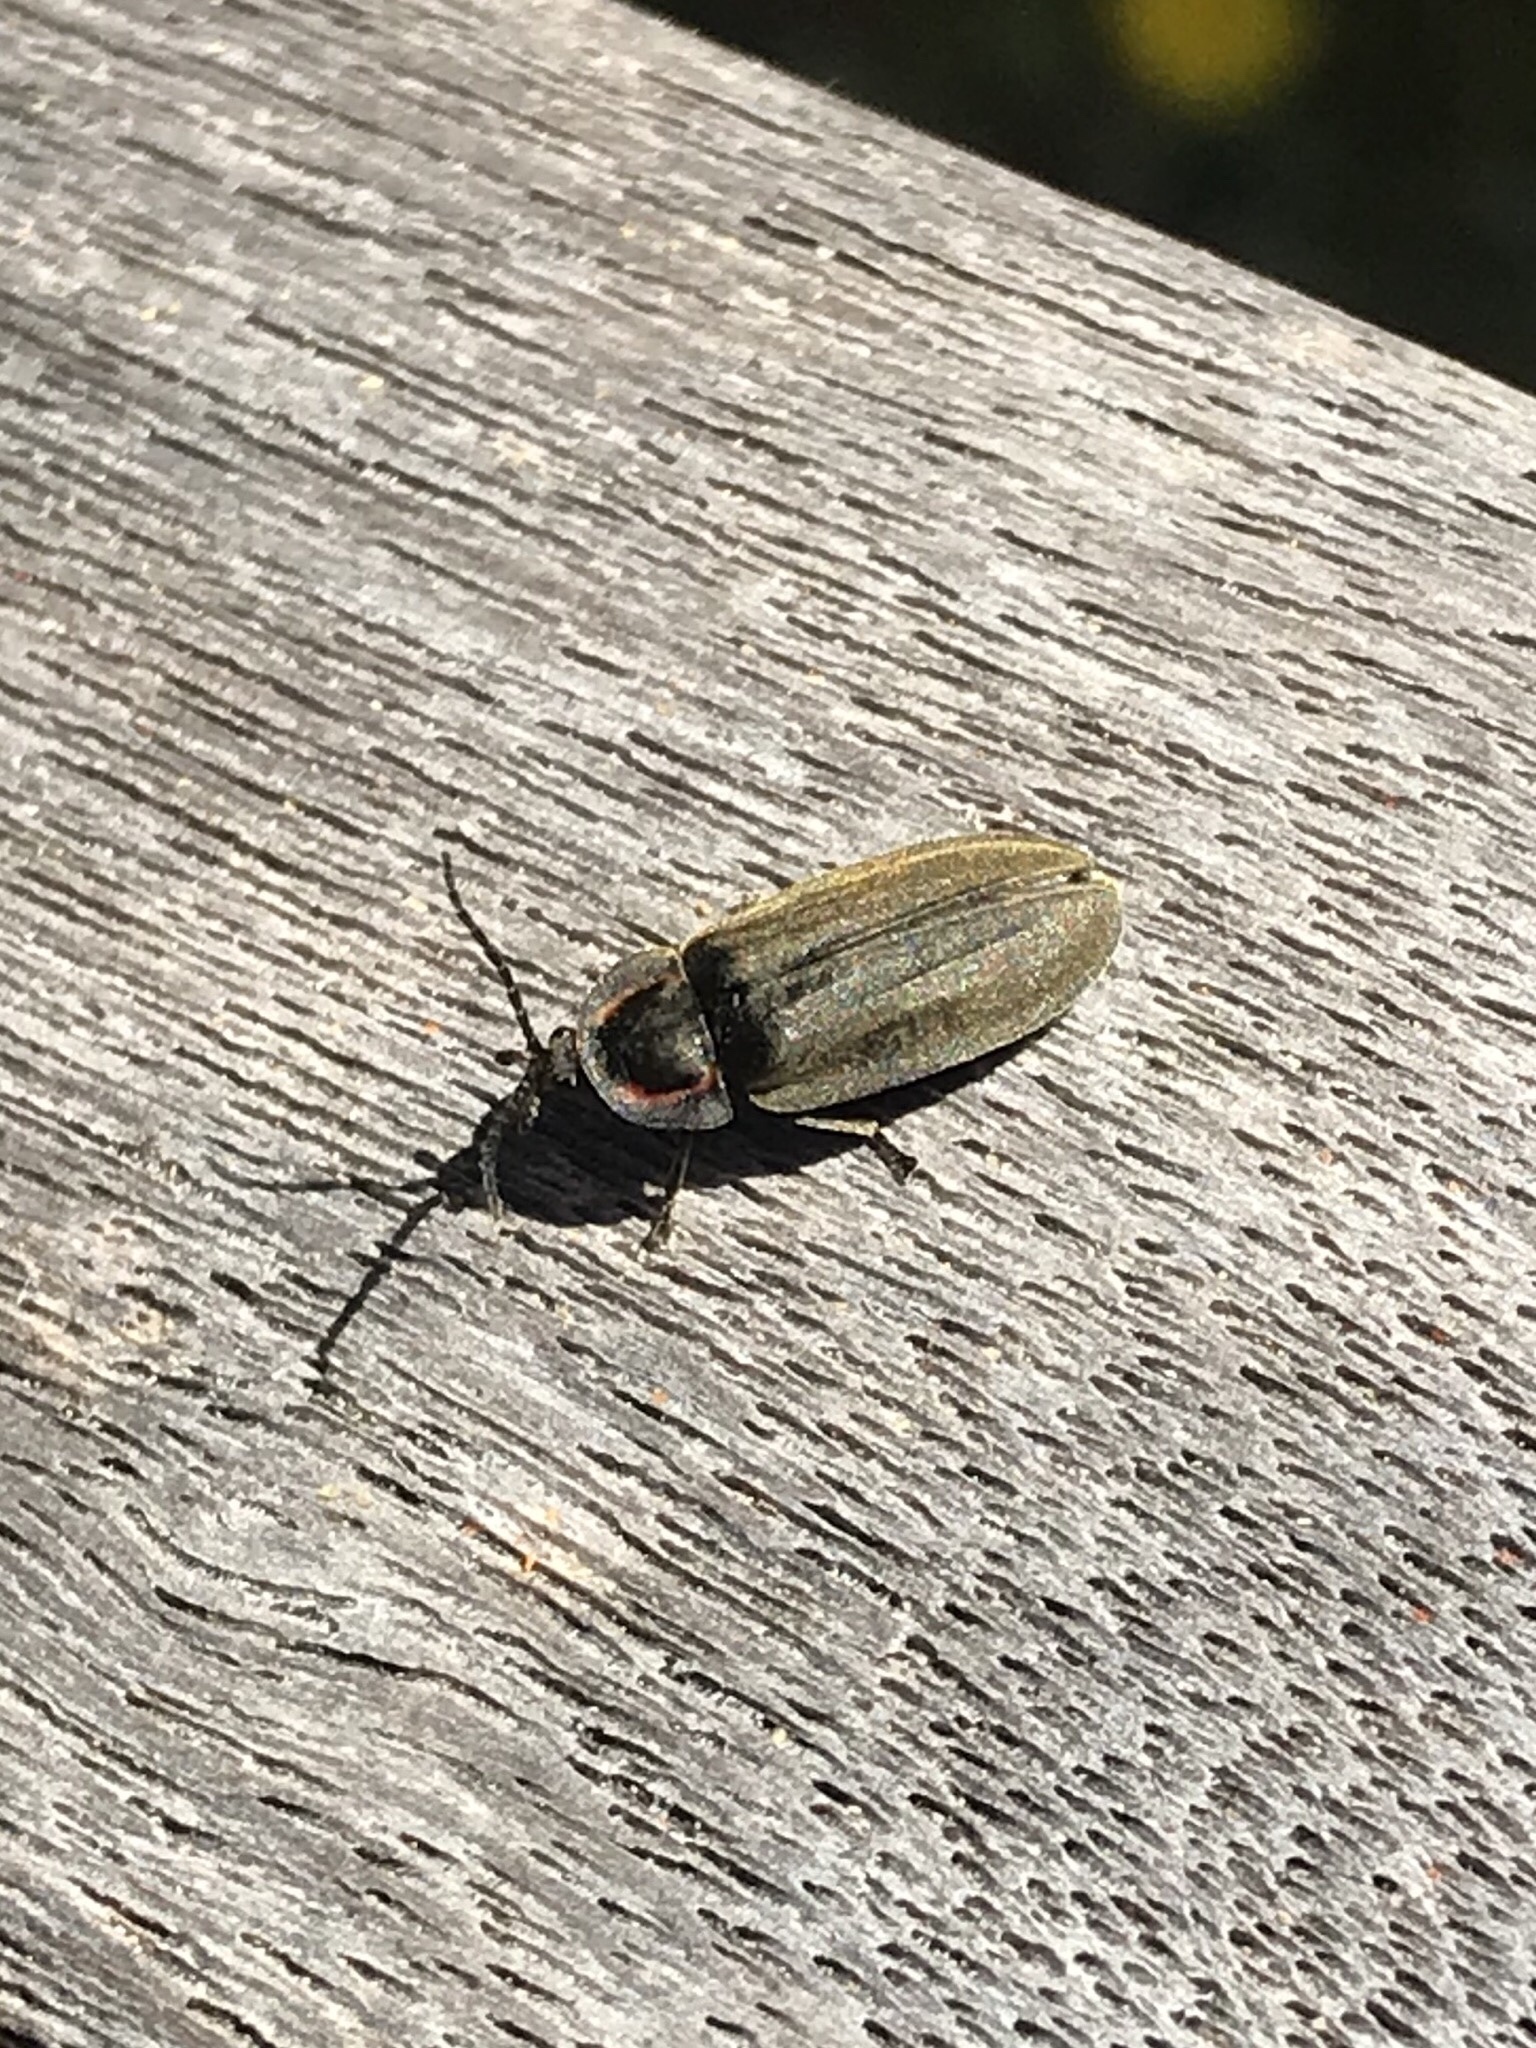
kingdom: Animalia
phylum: Arthropoda
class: Insecta
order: Coleoptera
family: Lampyridae
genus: Photinus
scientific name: Photinus corrusca
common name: Winter firefly
